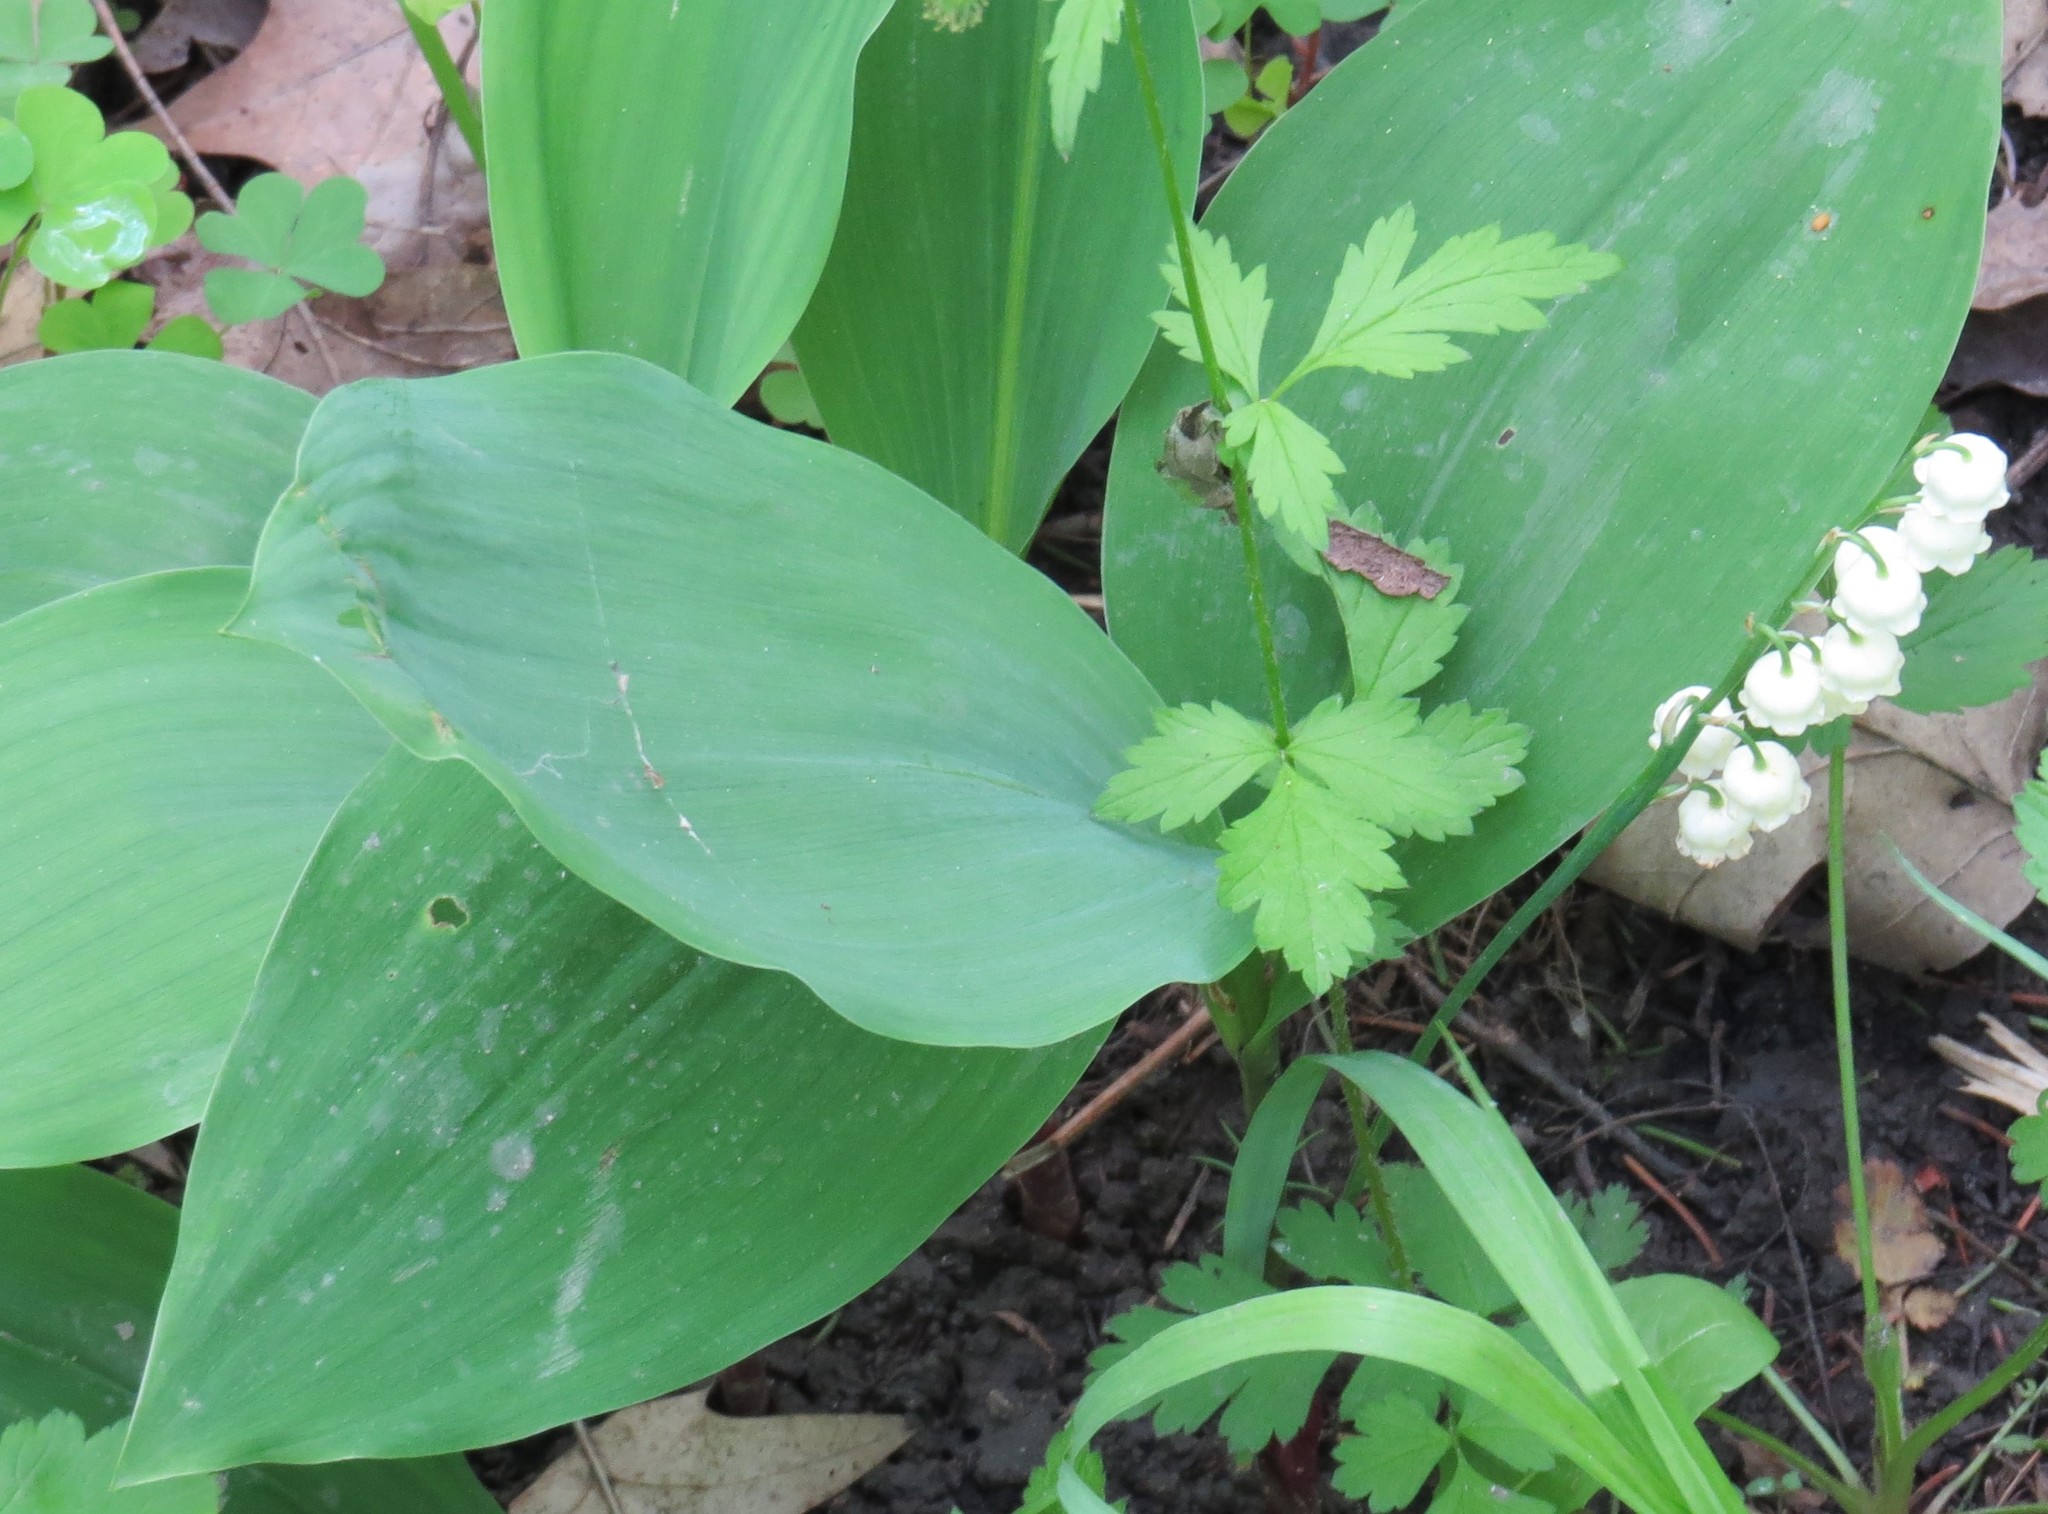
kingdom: Plantae
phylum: Tracheophyta
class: Liliopsida
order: Asparagales
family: Asparagaceae
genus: Convallaria
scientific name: Convallaria majalis
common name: Lily-of-the-valley
